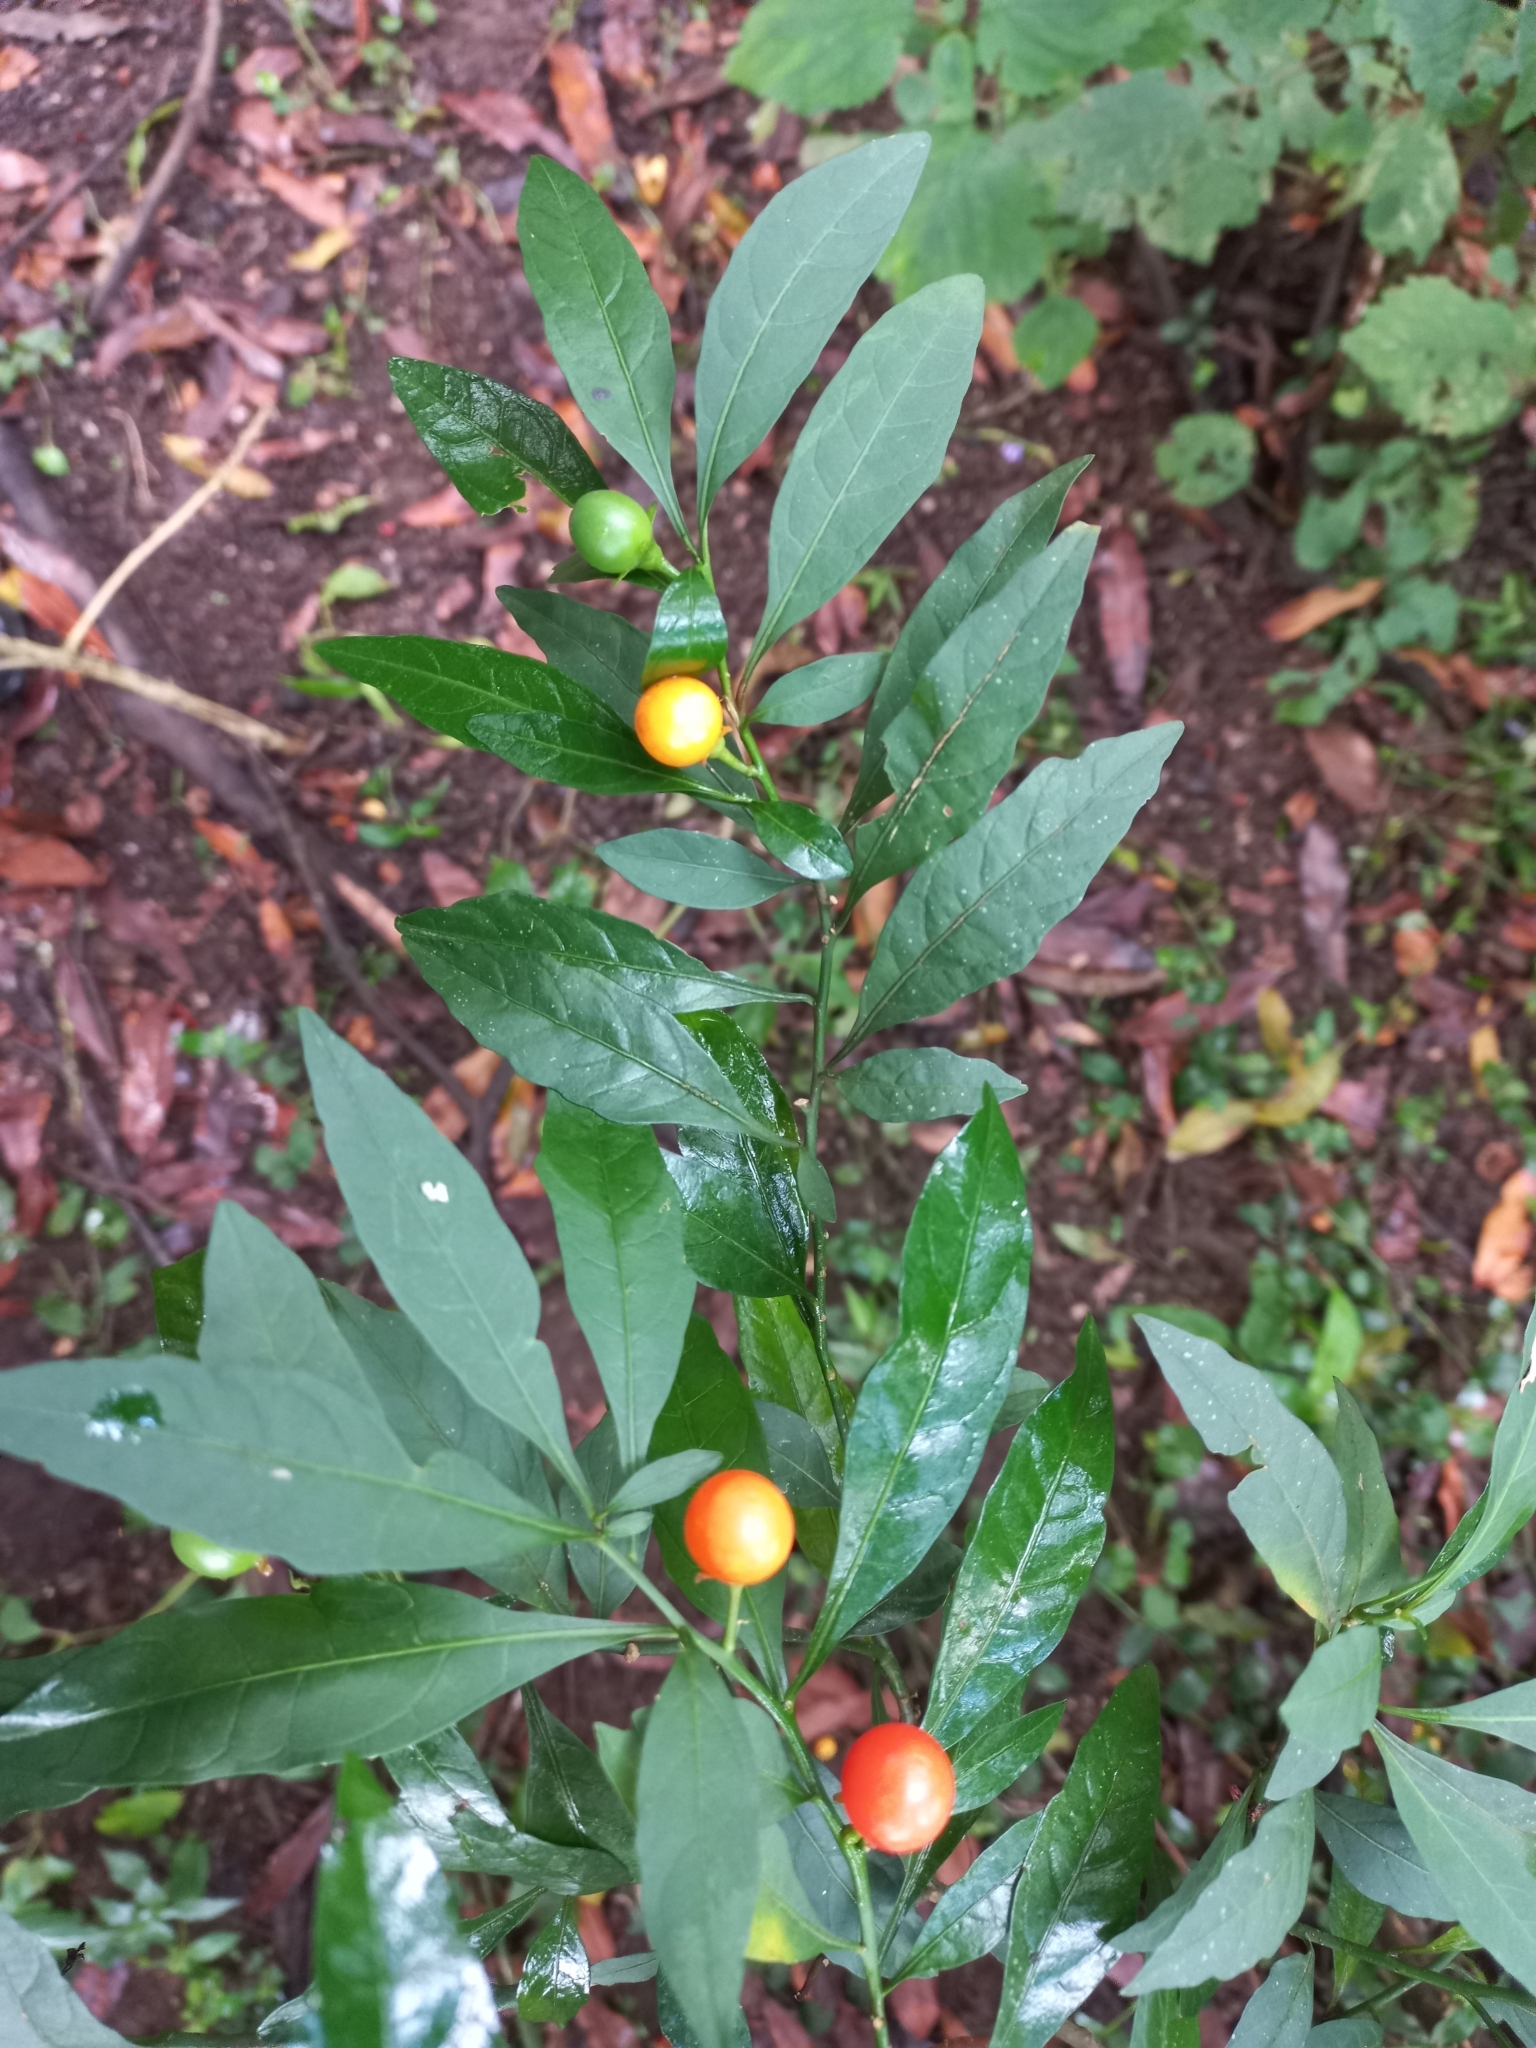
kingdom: Plantae
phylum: Tracheophyta
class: Magnoliopsida
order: Solanales
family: Solanaceae
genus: Solanum
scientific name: Solanum pseudocapsicum
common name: Jerusalem cherry
